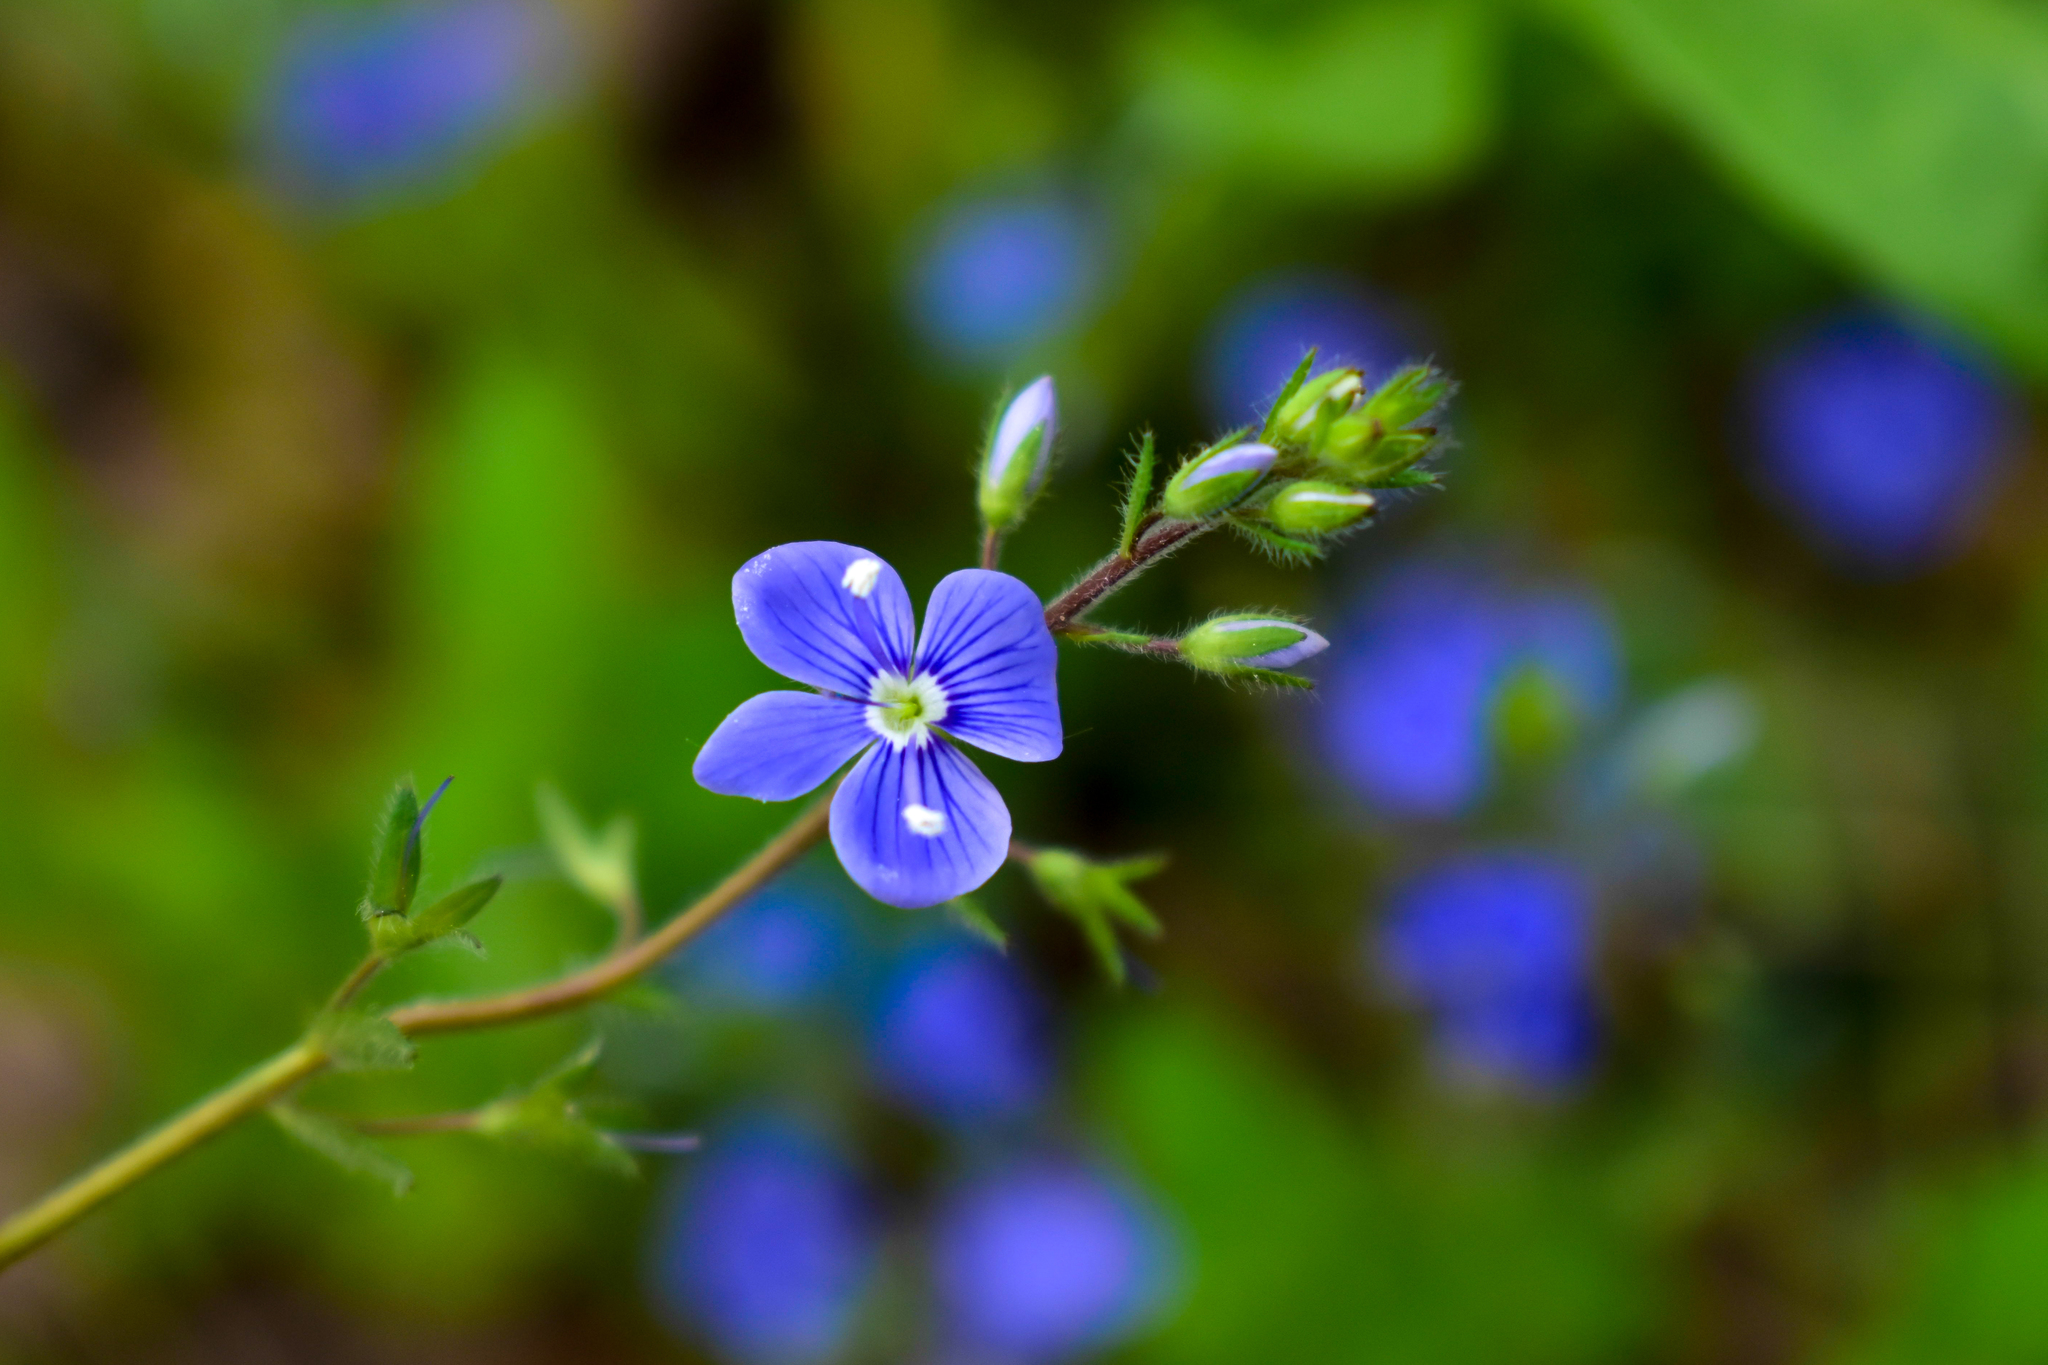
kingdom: Plantae
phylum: Tracheophyta
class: Magnoliopsida
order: Lamiales
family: Plantaginaceae
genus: Veronica
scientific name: Veronica chamaedrys
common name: Germander speedwell
